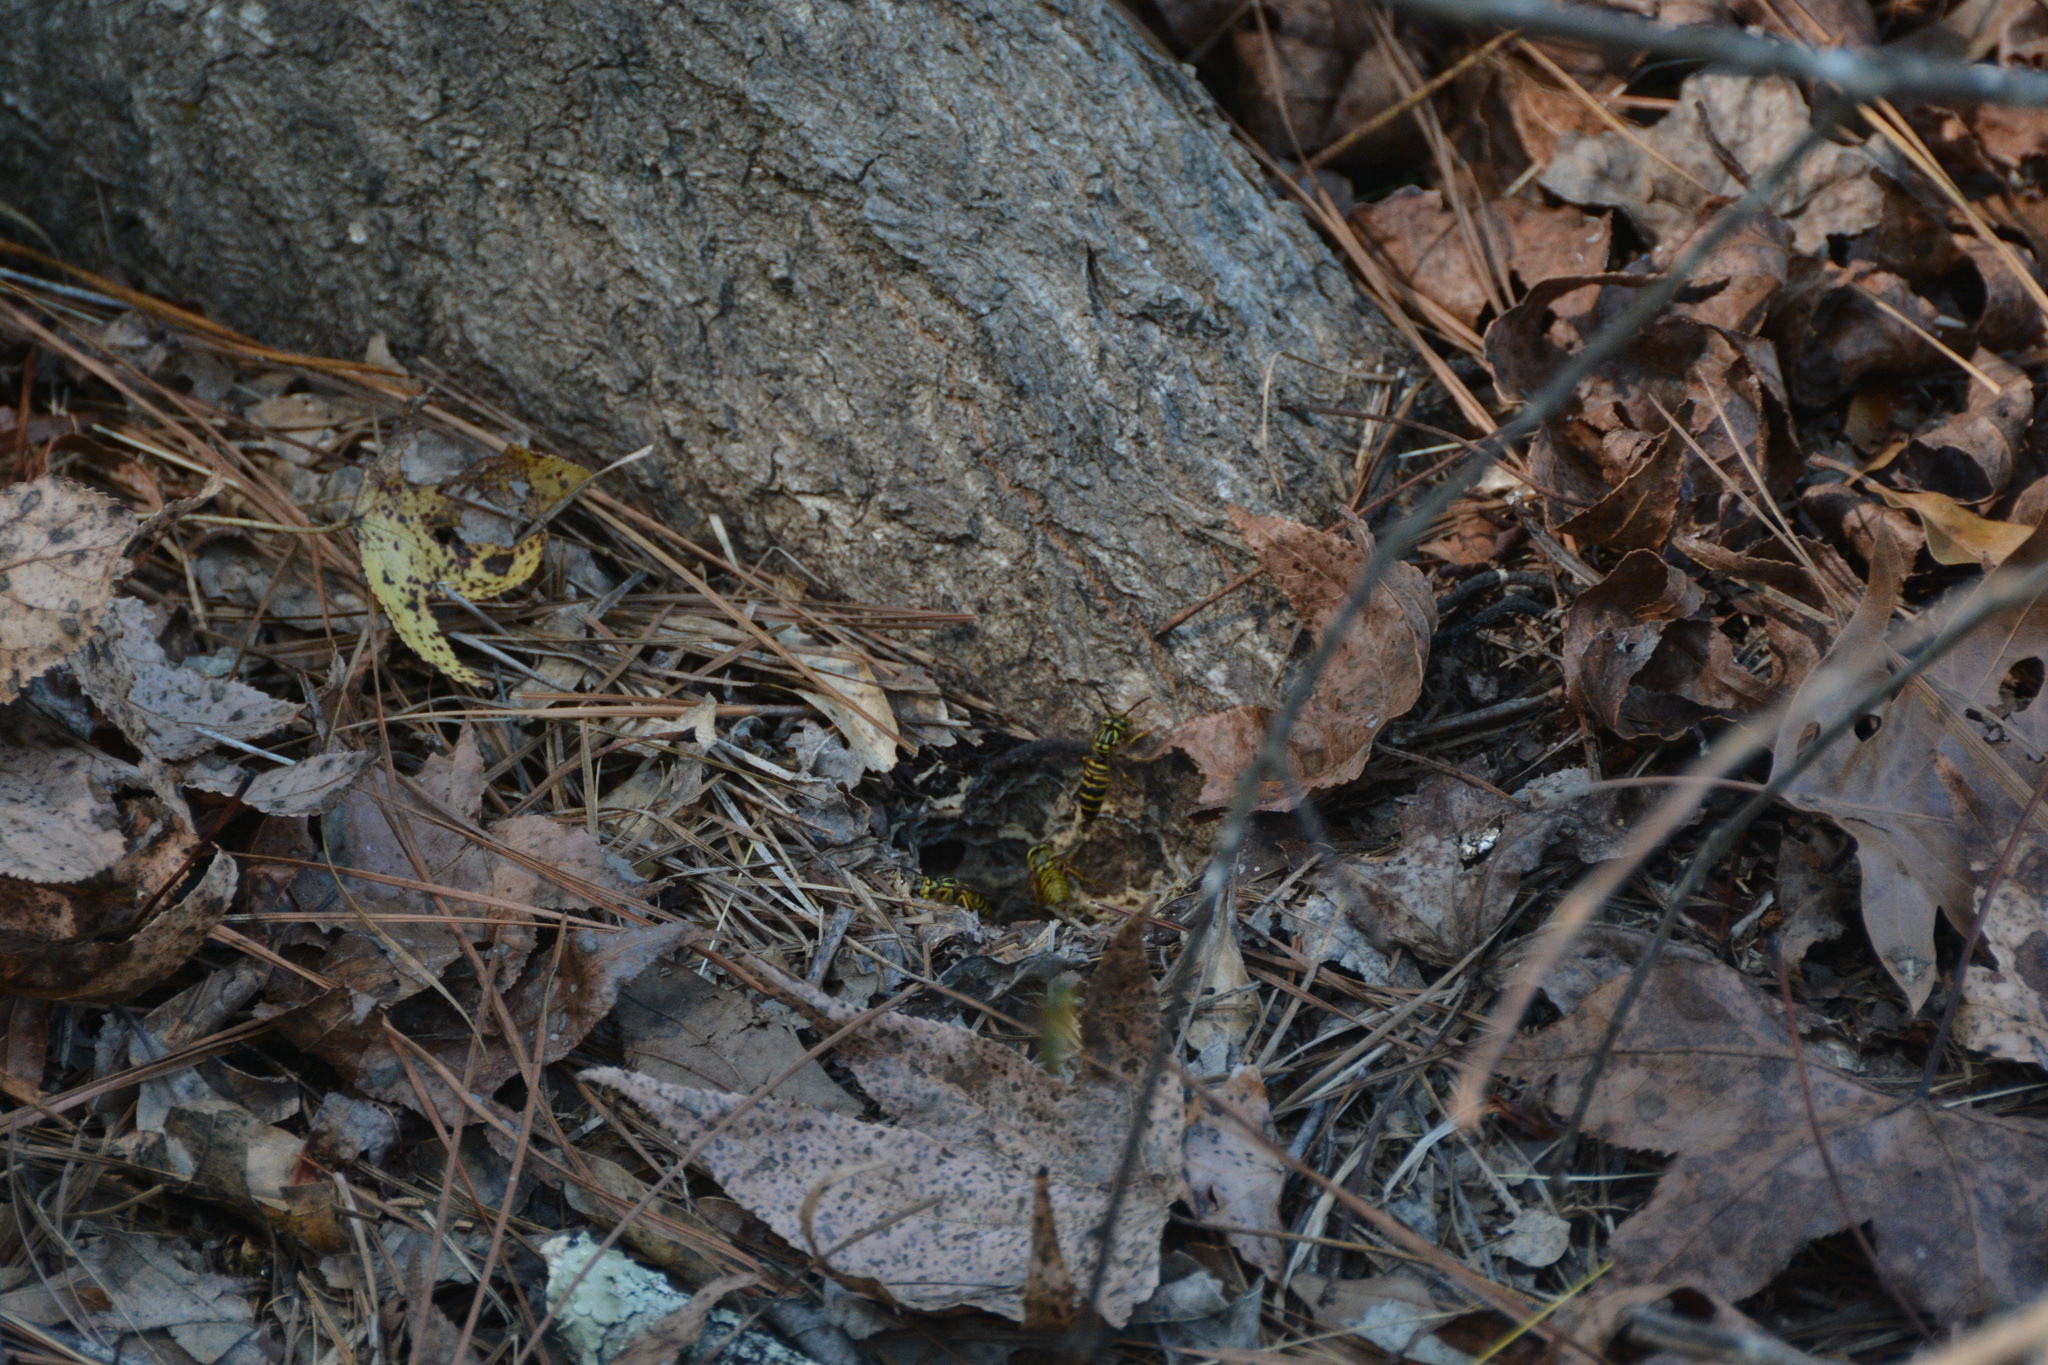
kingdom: Animalia
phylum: Arthropoda
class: Insecta
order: Hymenoptera
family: Vespidae
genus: Vespula
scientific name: Vespula squamosa
